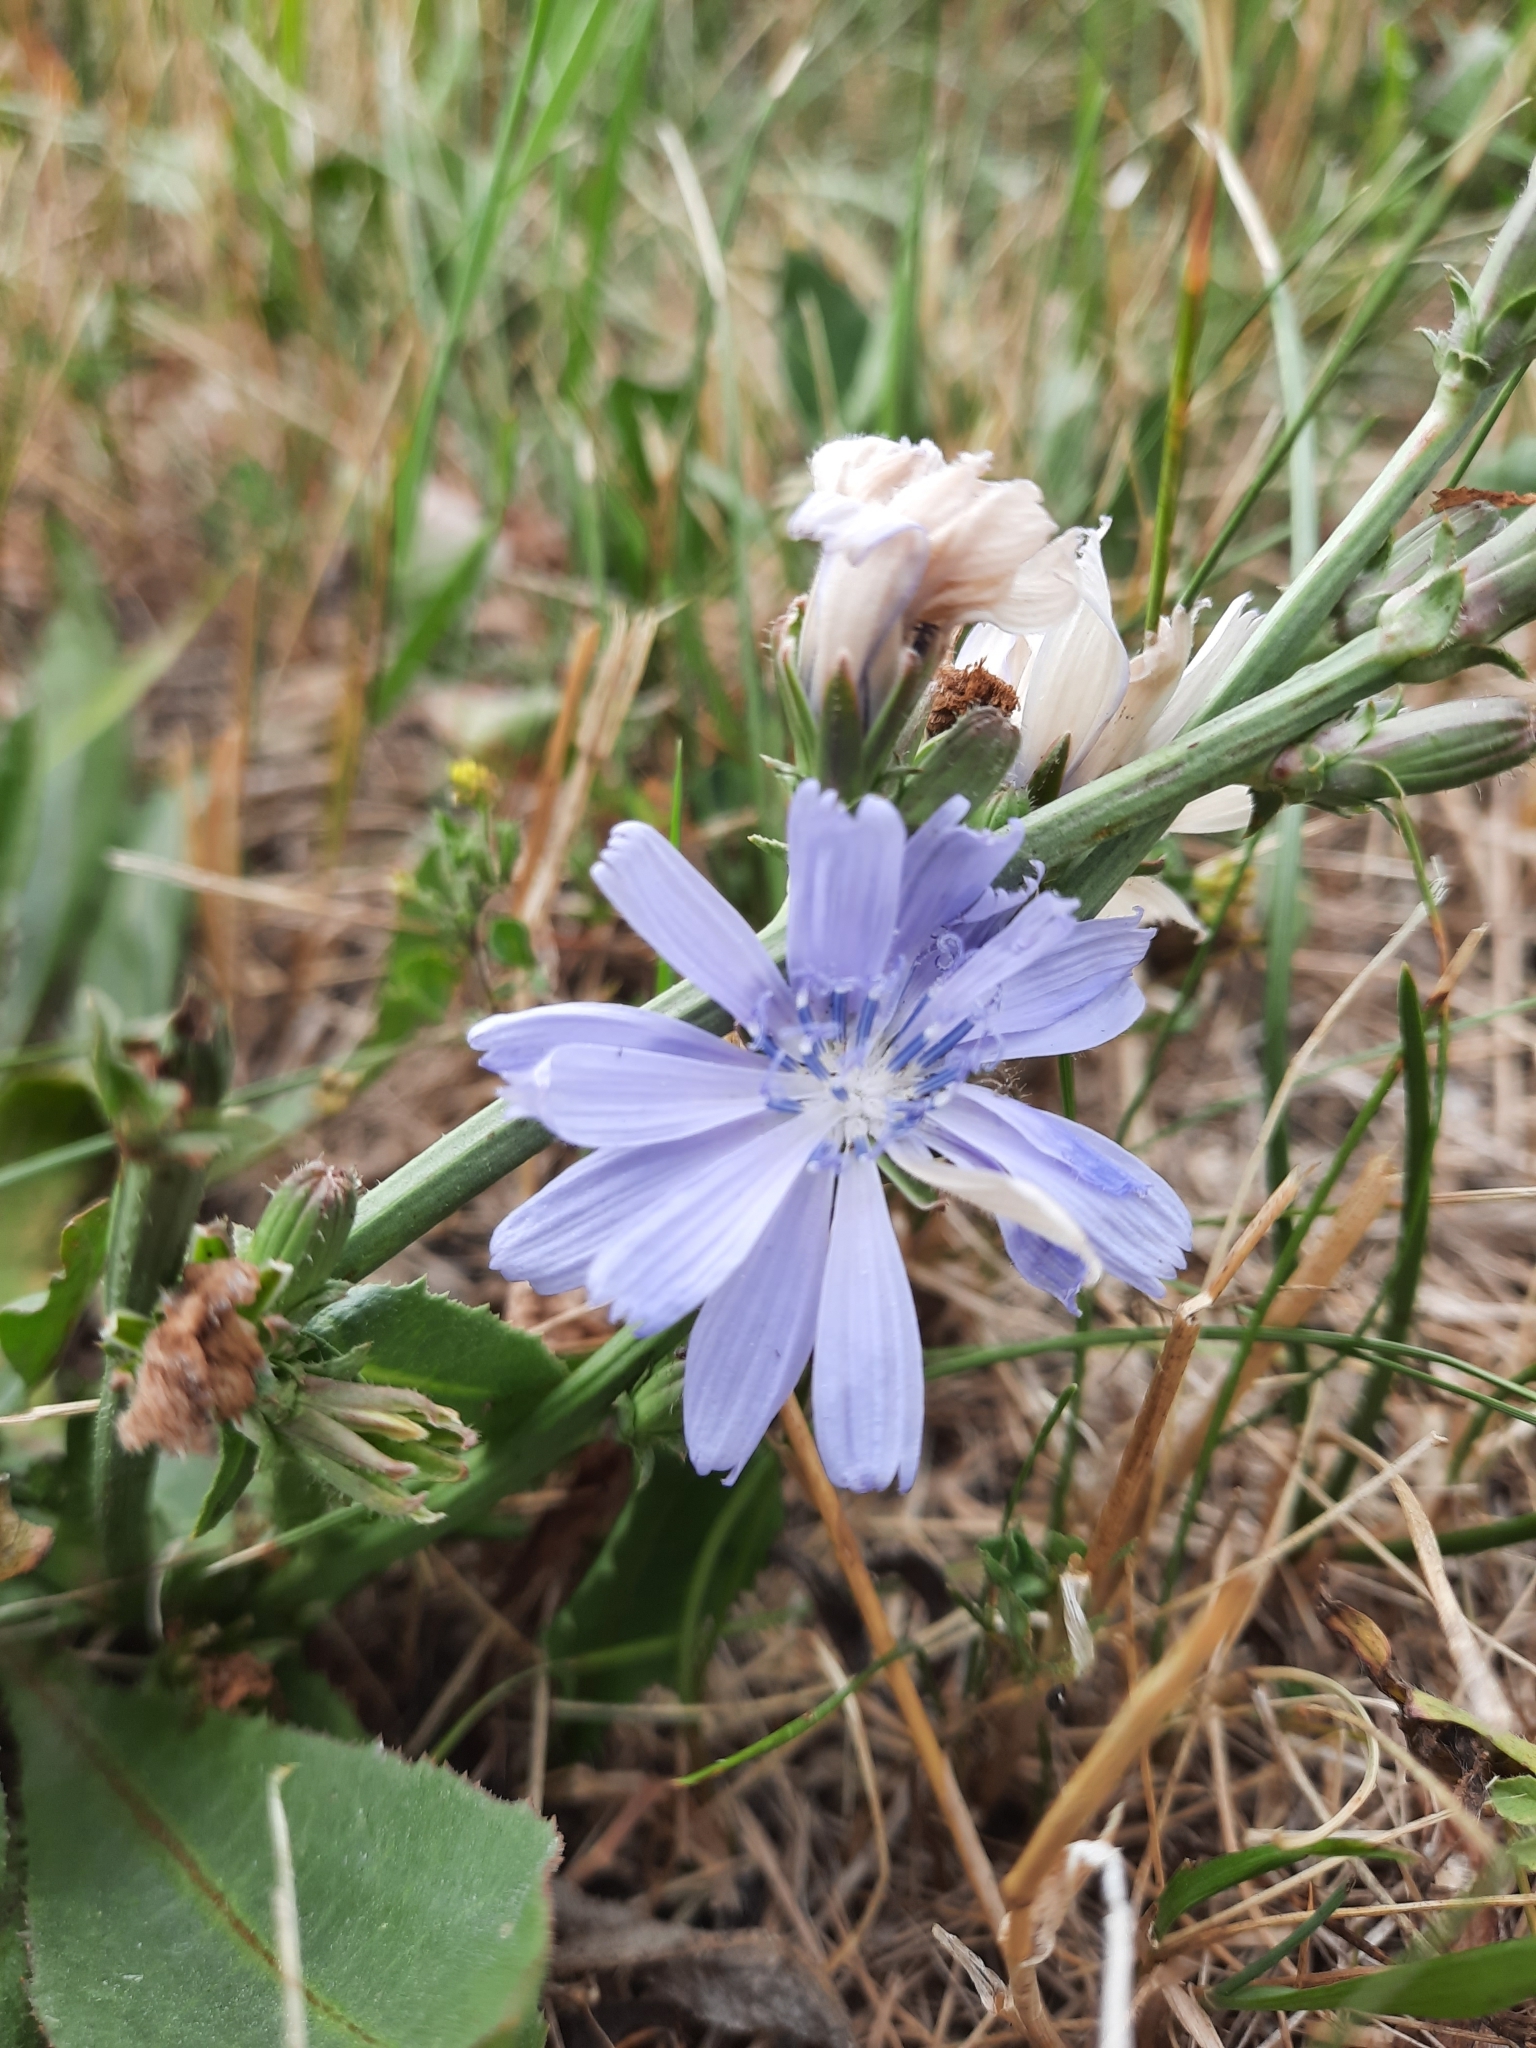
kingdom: Plantae
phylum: Tracheophyta
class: Magnoliopsida
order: Asterales
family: Asteraceae
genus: Cichorium
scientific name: Cichorium intybus
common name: Chicory
